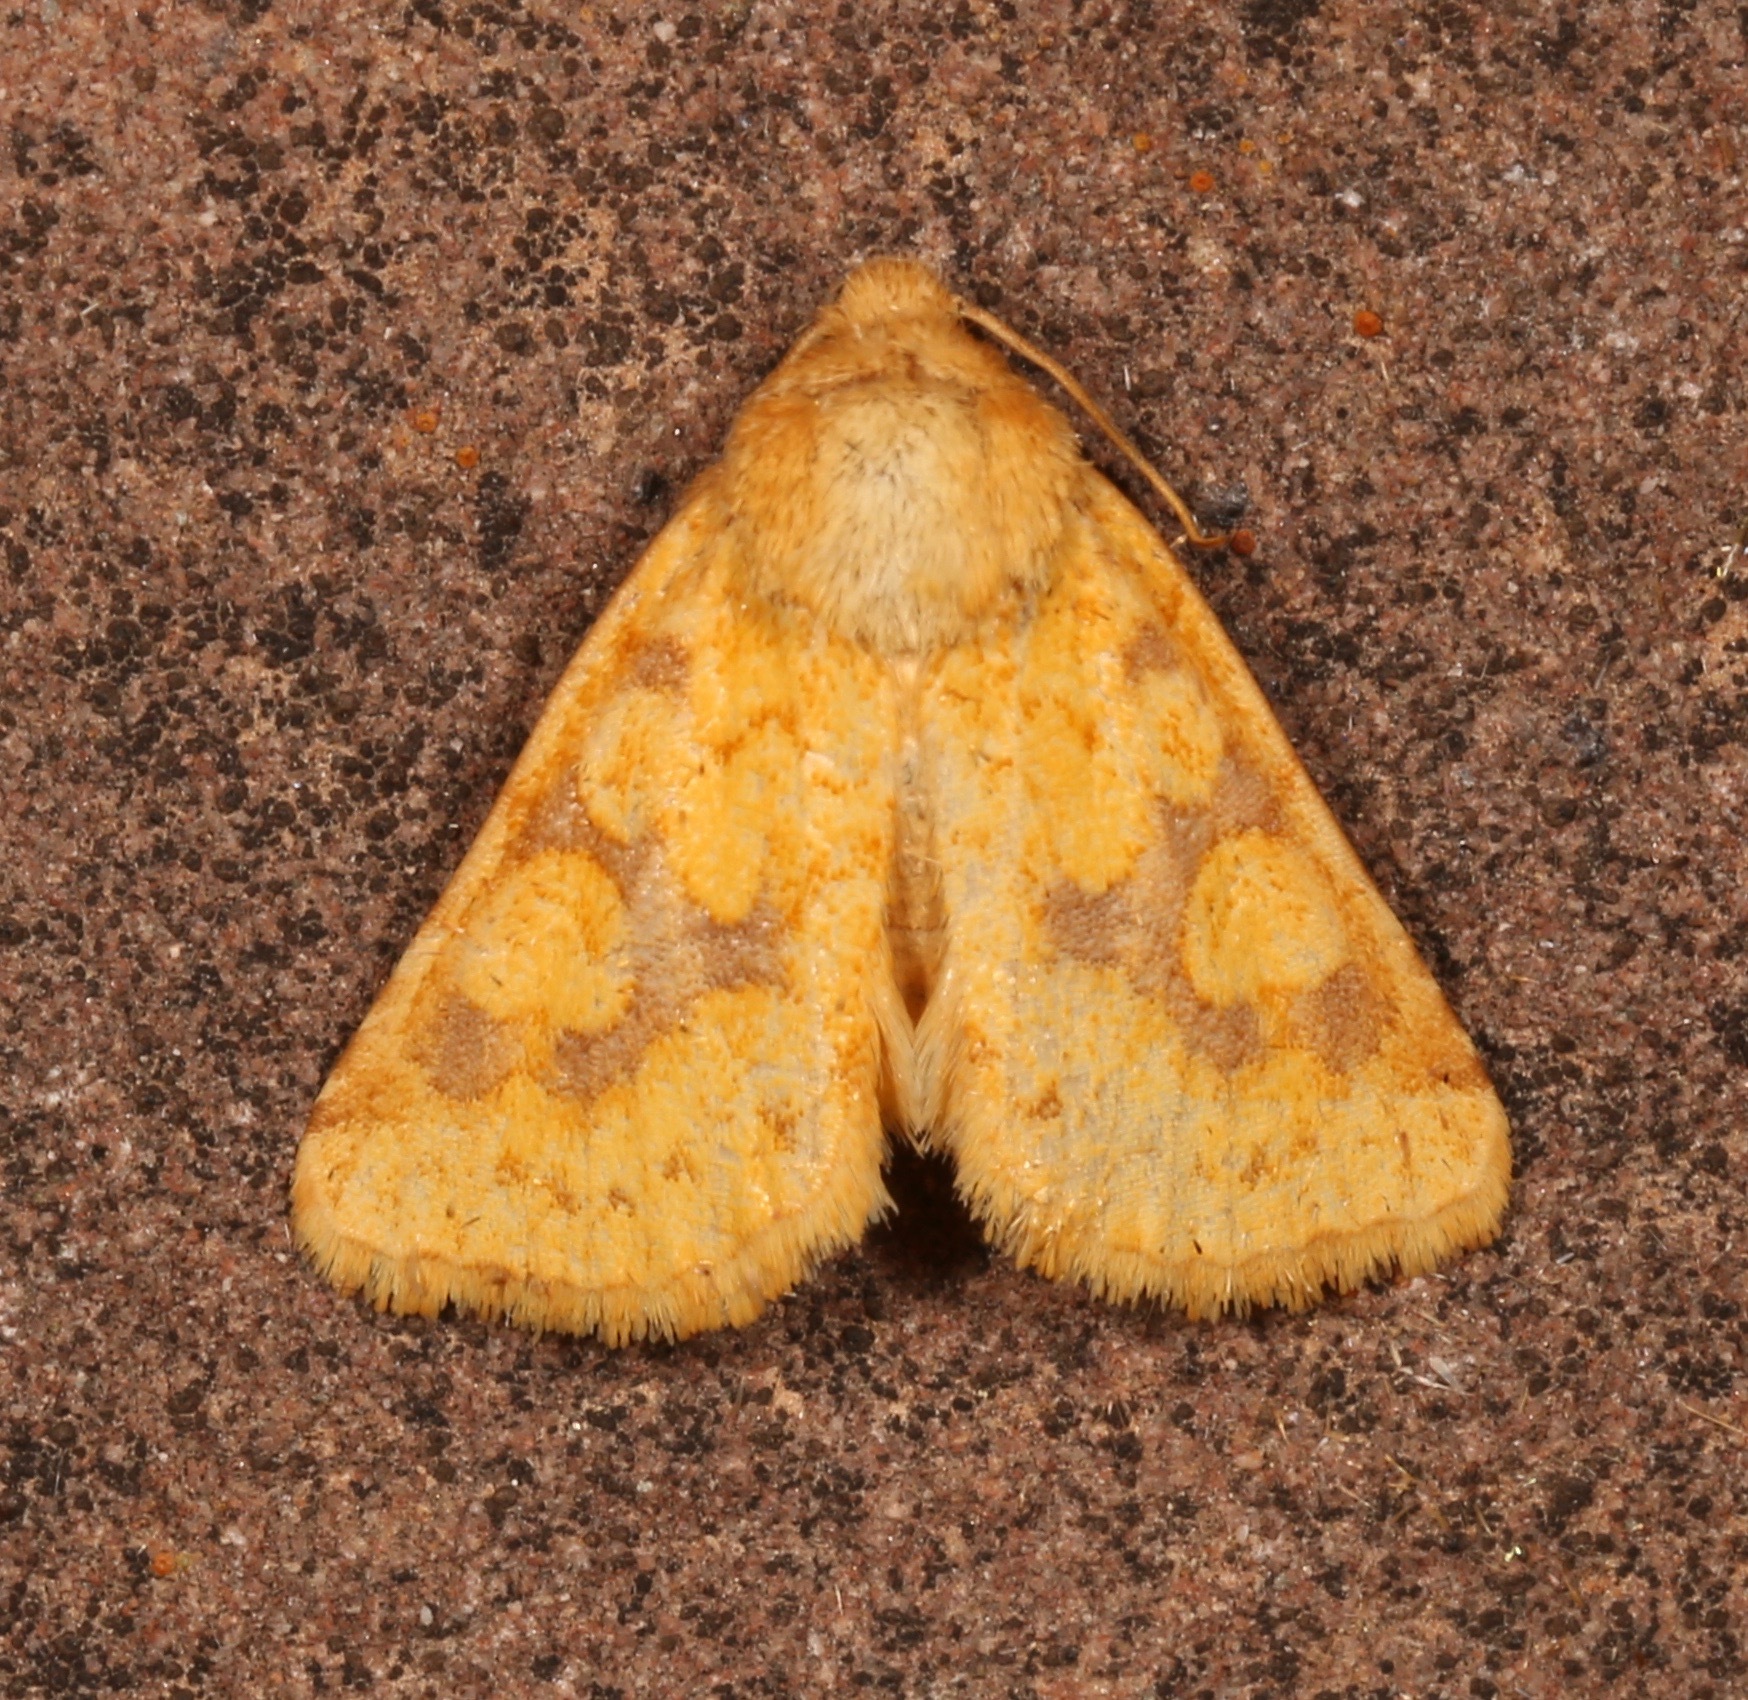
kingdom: Animalia
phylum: Arthropoda
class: Insecta
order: Lepidoptera
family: Noctuidae
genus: Nocloa
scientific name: Nocloa cordova
